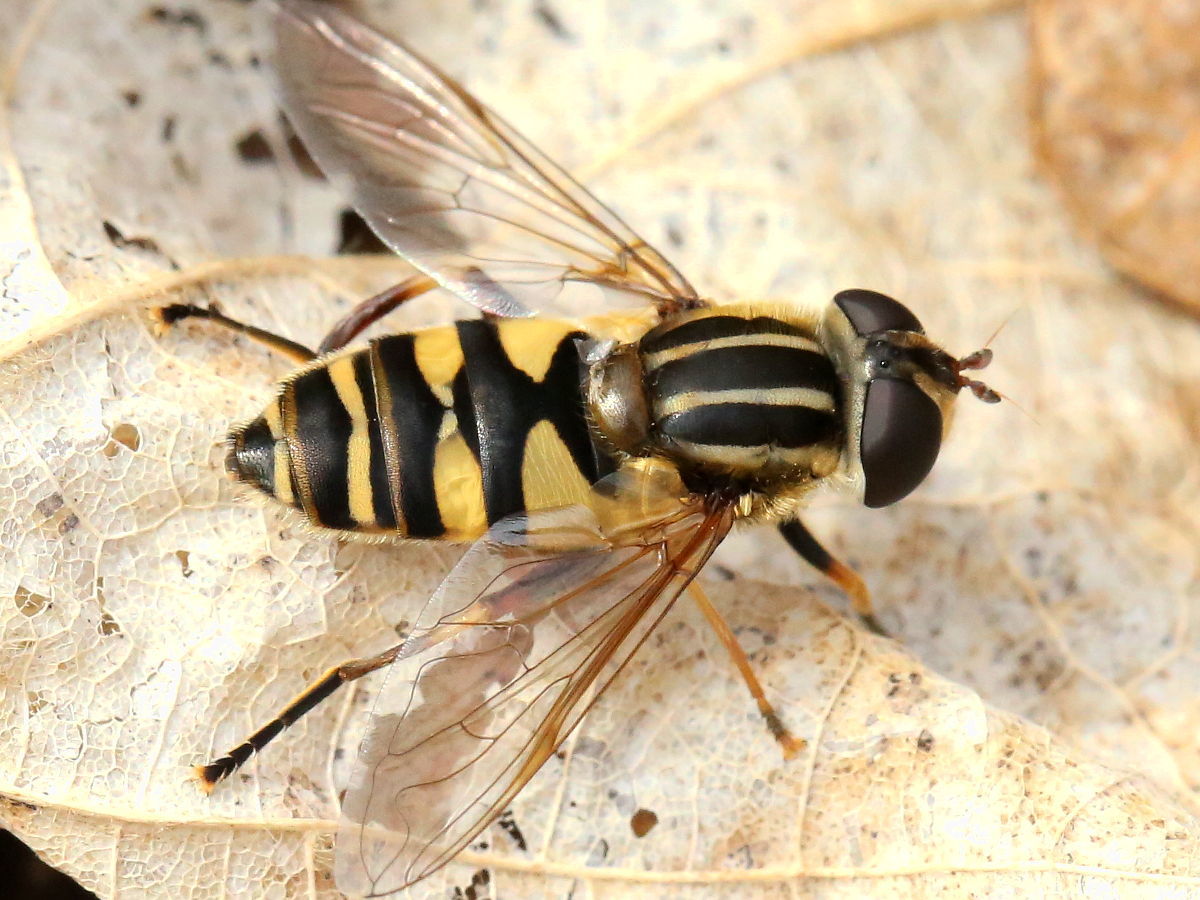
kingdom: Animalia
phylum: Arthropoda
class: Insecta
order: Diptera
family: Syrphidae
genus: Helophilus
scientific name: Helophilus fasciatus
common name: Narrow-headed marsh fly
